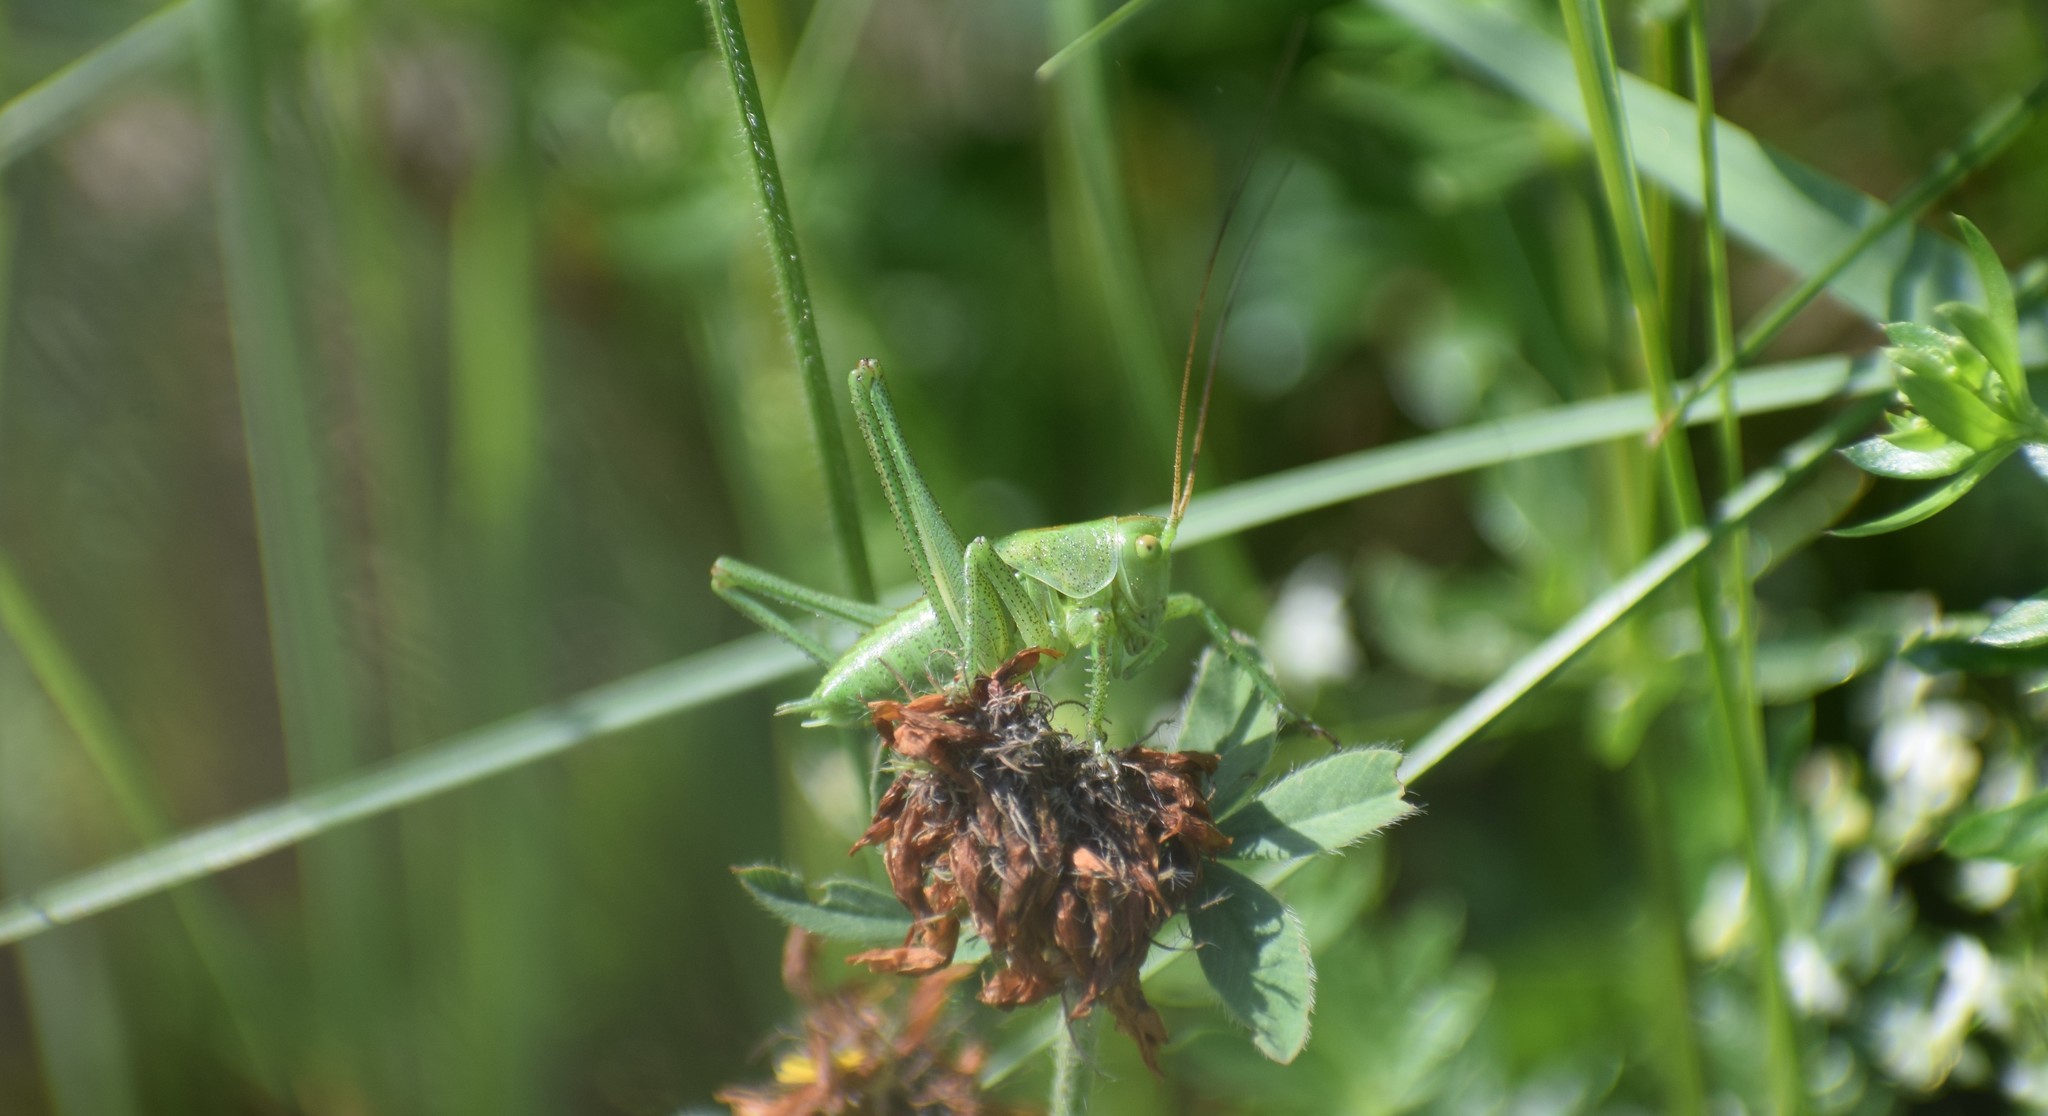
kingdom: Animalia
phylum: Arthropoda
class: Insecta
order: Orthoptera
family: Tettigoniidae
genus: Tettigonia
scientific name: Tettigonia viridissima
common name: Great green bush-cricket
